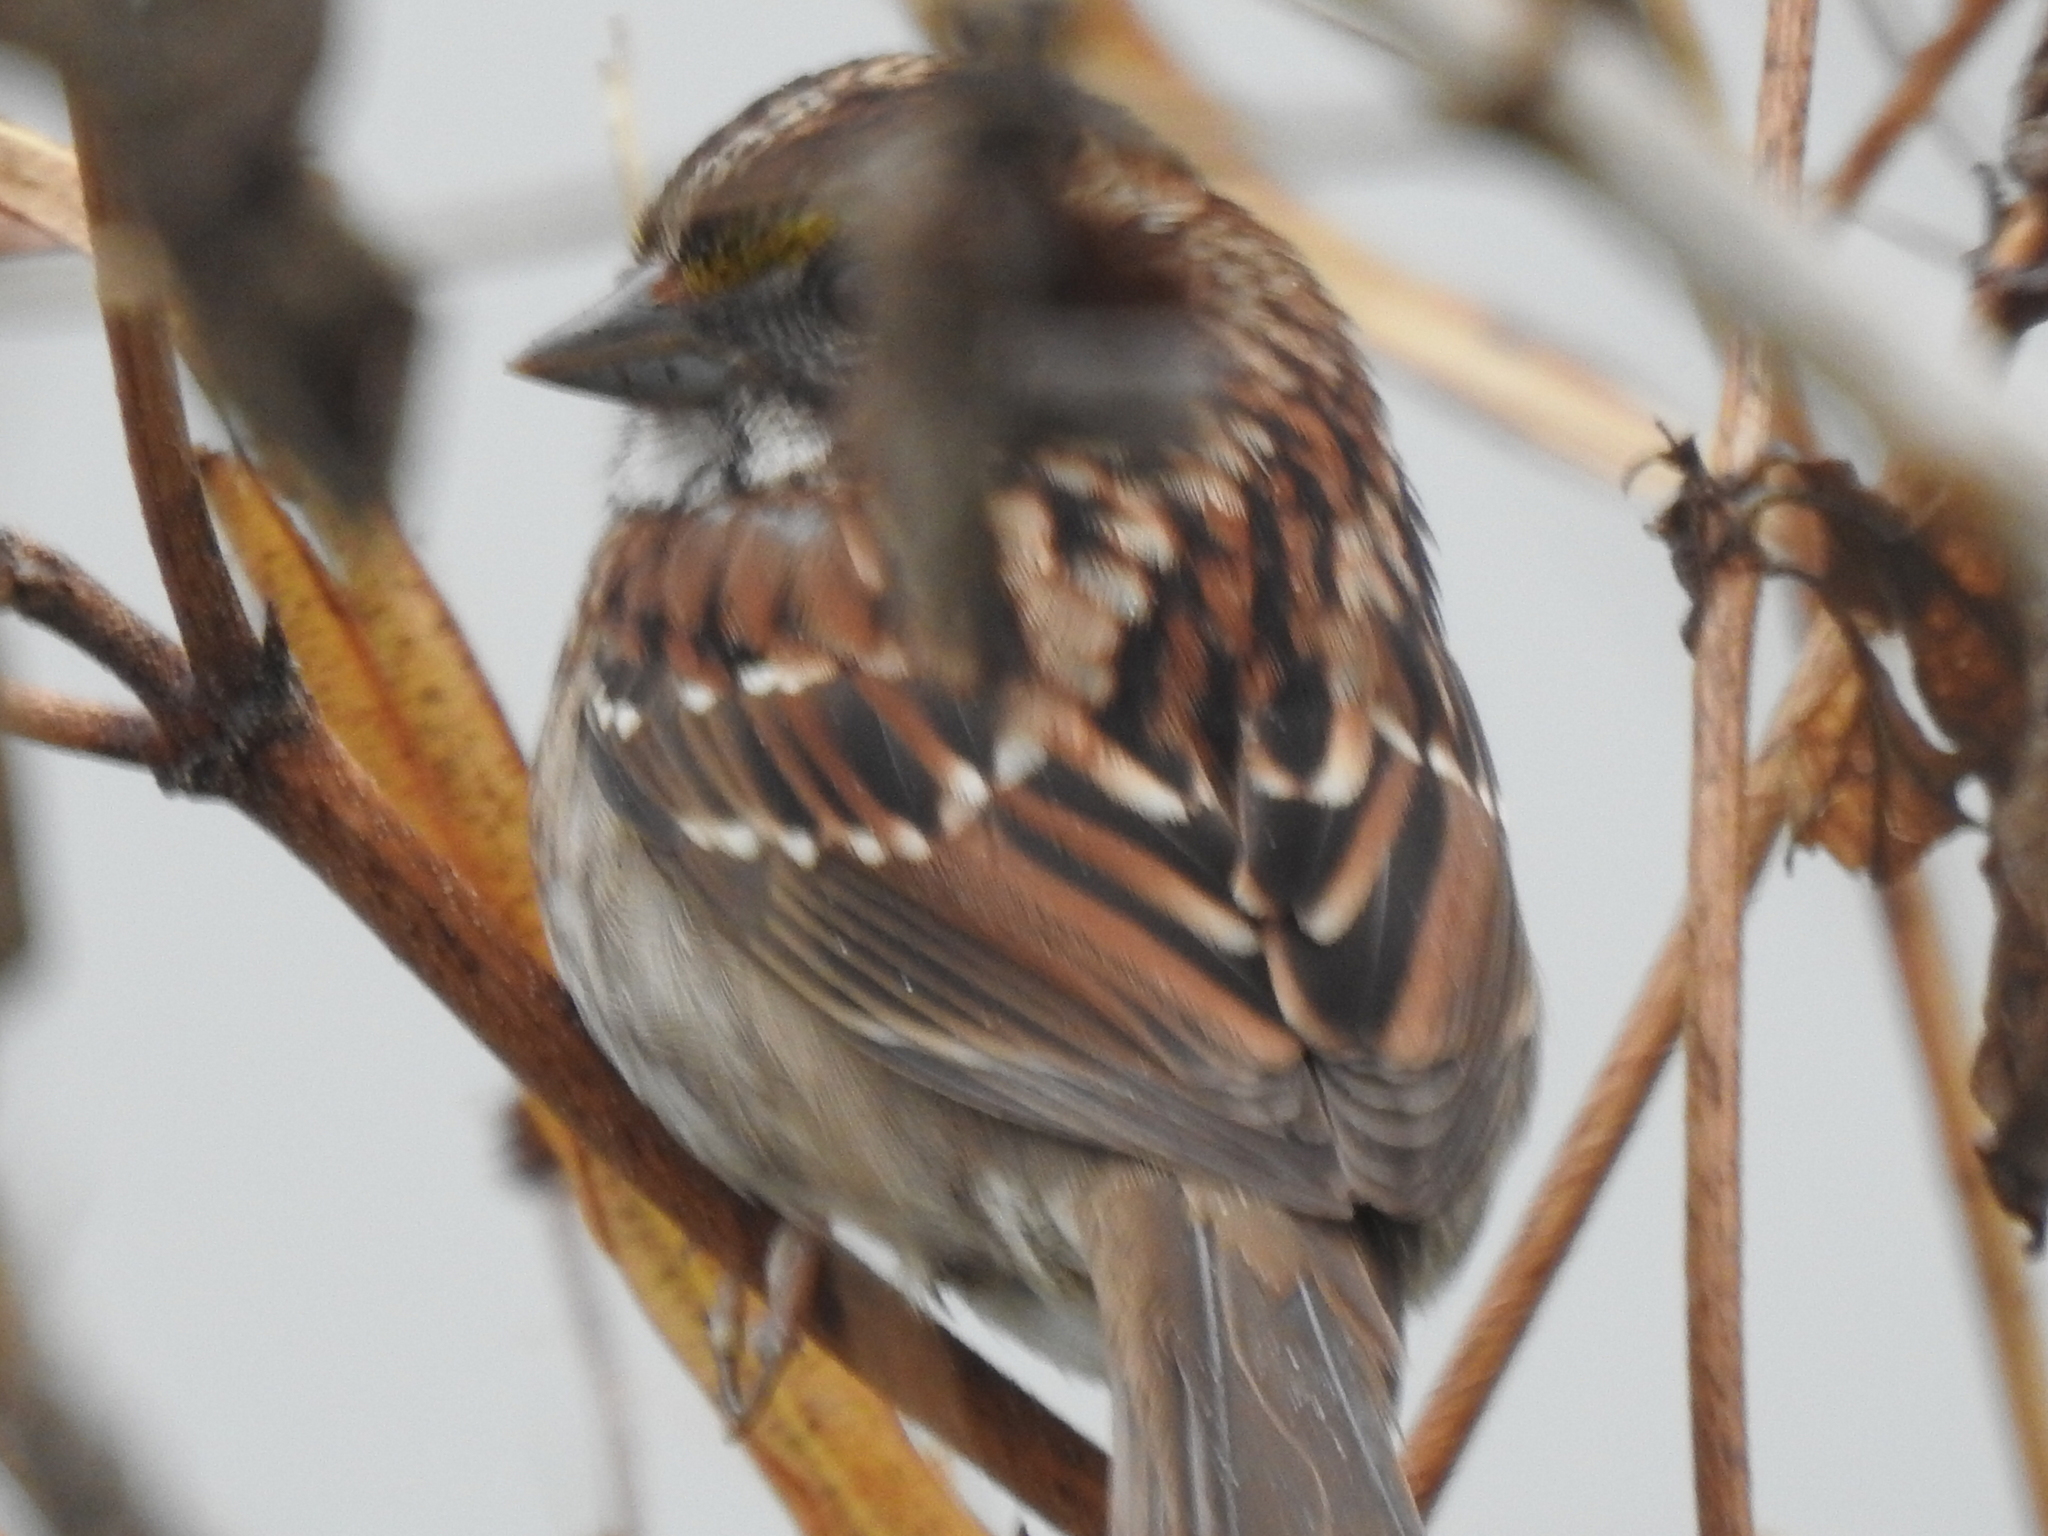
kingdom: Animalia
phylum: Chordata
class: Aves
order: Passeriformes
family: Passerellidae
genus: Zonotrichia
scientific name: Zonotrichia albicollis
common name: White-throated sparrow
